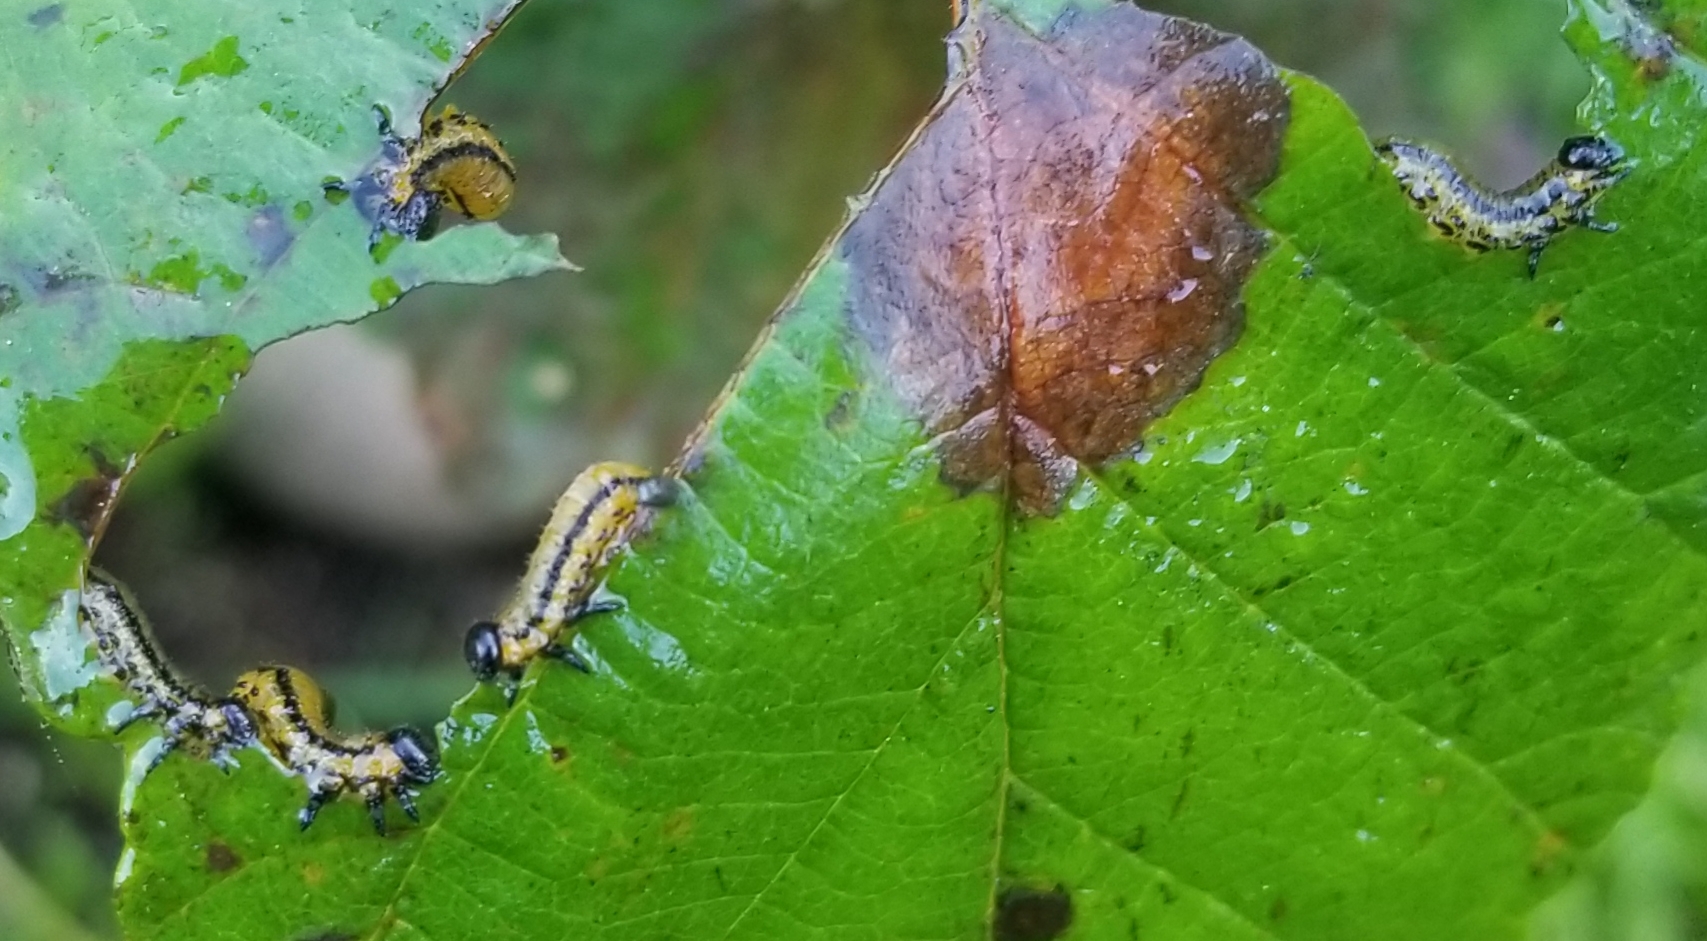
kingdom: Animalia
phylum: Arthropoda
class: Insecta
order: Hymenoptera
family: Tenthredinidae
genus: Hemichroa
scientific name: Hemichroa crocea
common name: Striped alder sawfly
